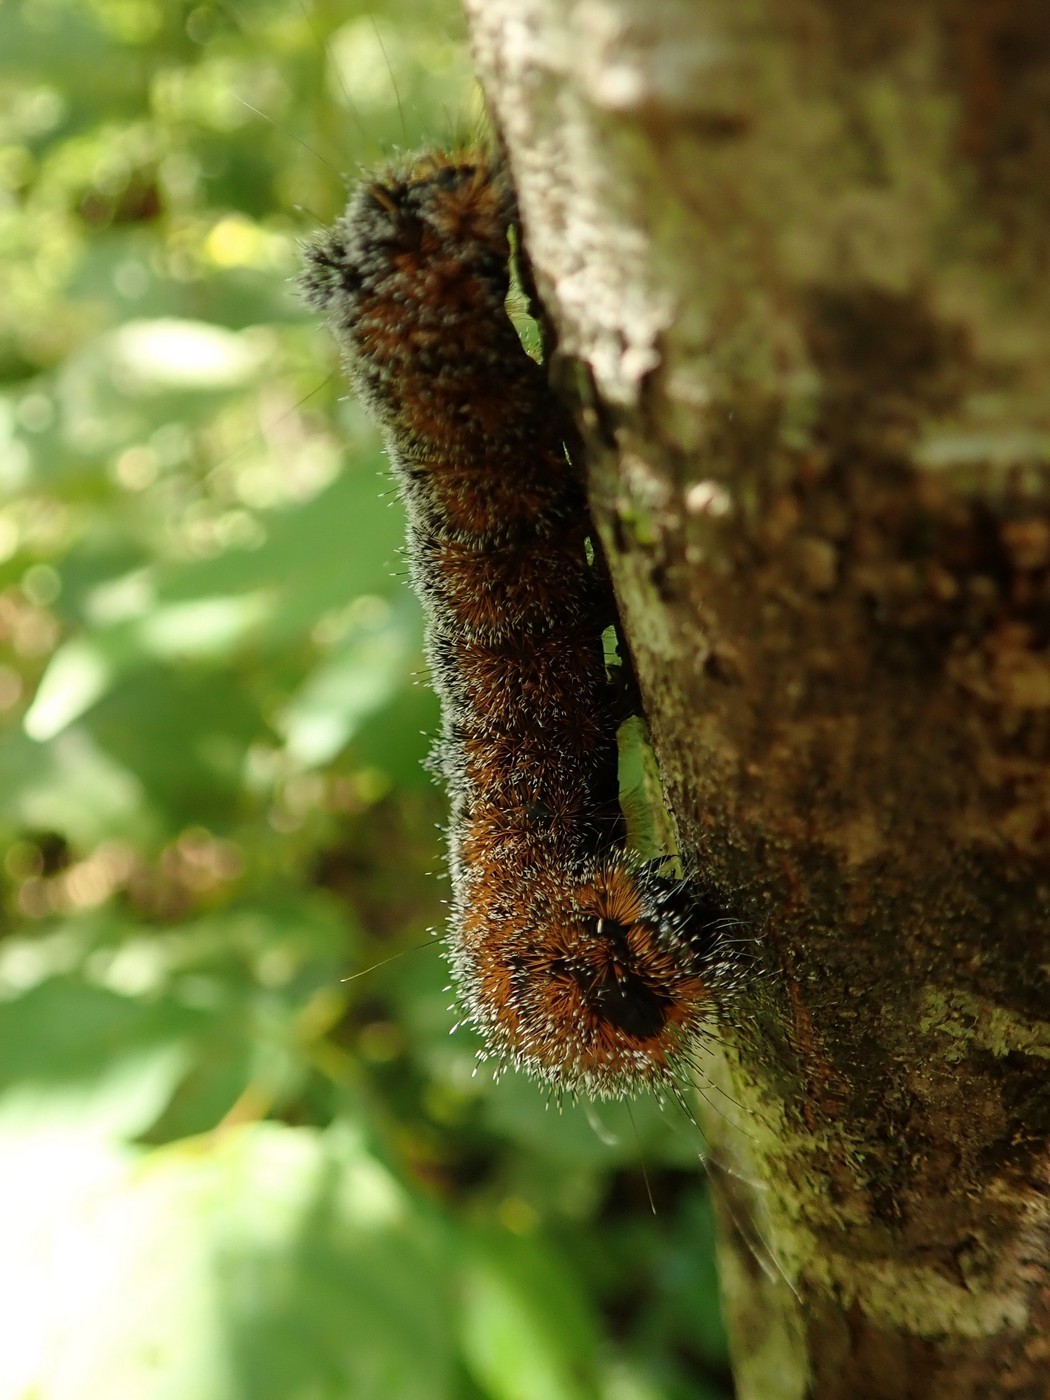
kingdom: Animalia
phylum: Arthropoda
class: Insecta
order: Lepidoptera
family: Noctuidae
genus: Acronicta
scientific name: Acronicta hastulifera
